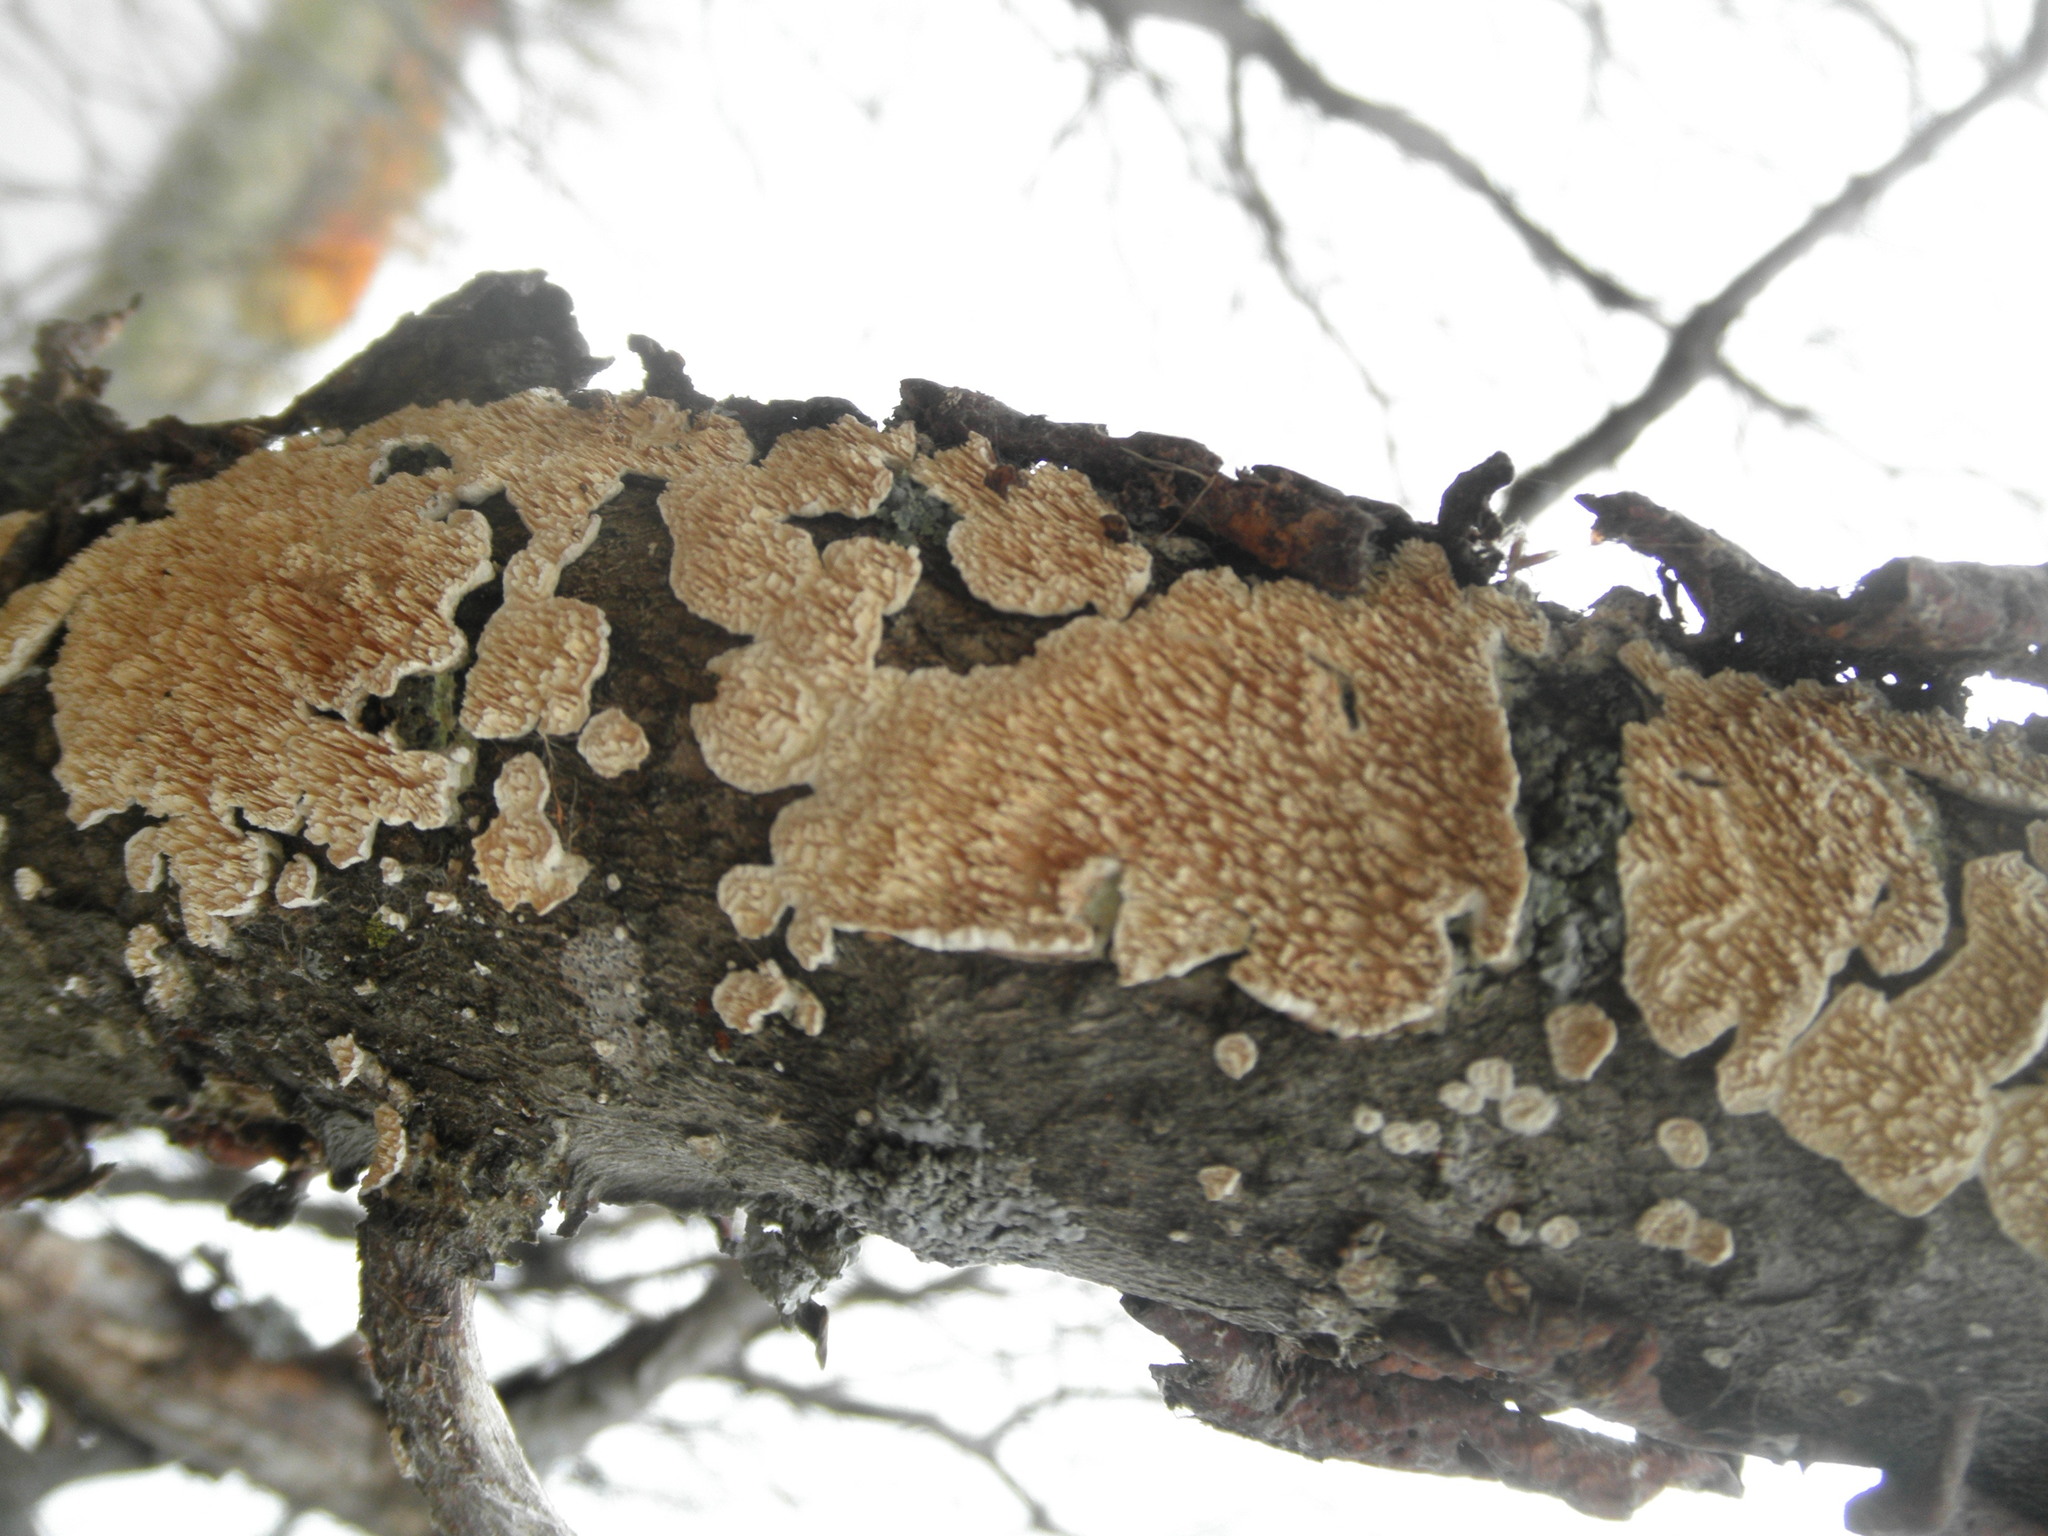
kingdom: Fungi
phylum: Basidiomycota
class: Agaricomycetes
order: Polyporales
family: Irpicaceae
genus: Irpex
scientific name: Irpex lacteus
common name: Milk-white toothed polypore
